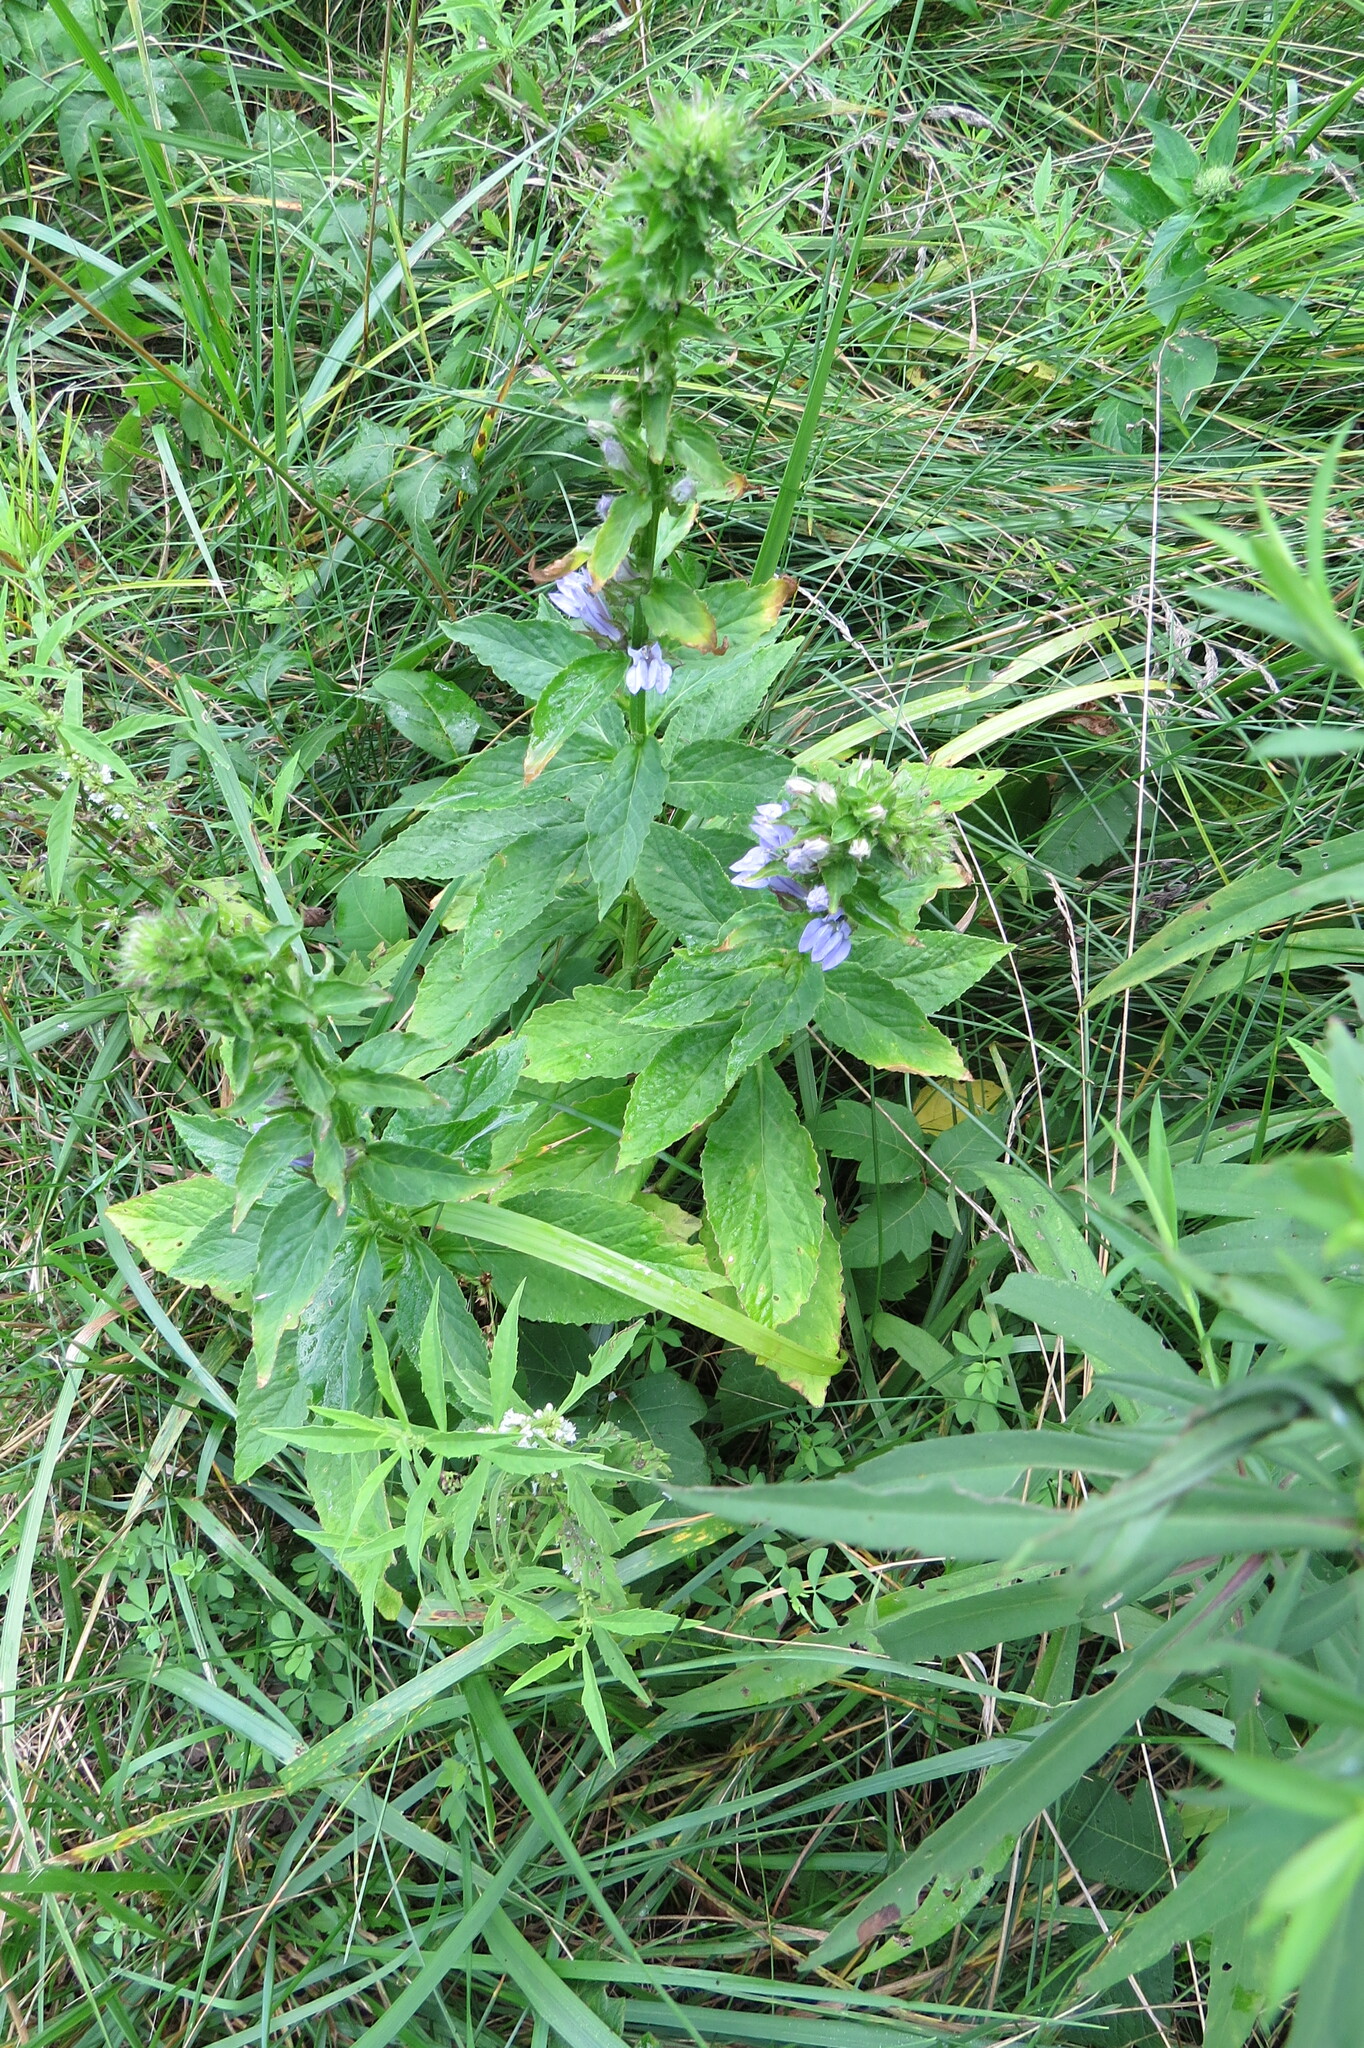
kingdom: Plantae
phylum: Tracheophyta
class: Magnoliopsida
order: Asterales
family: Campanulaceae
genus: Lobelia
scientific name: Lobelia siphilitica
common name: Great lobelia
